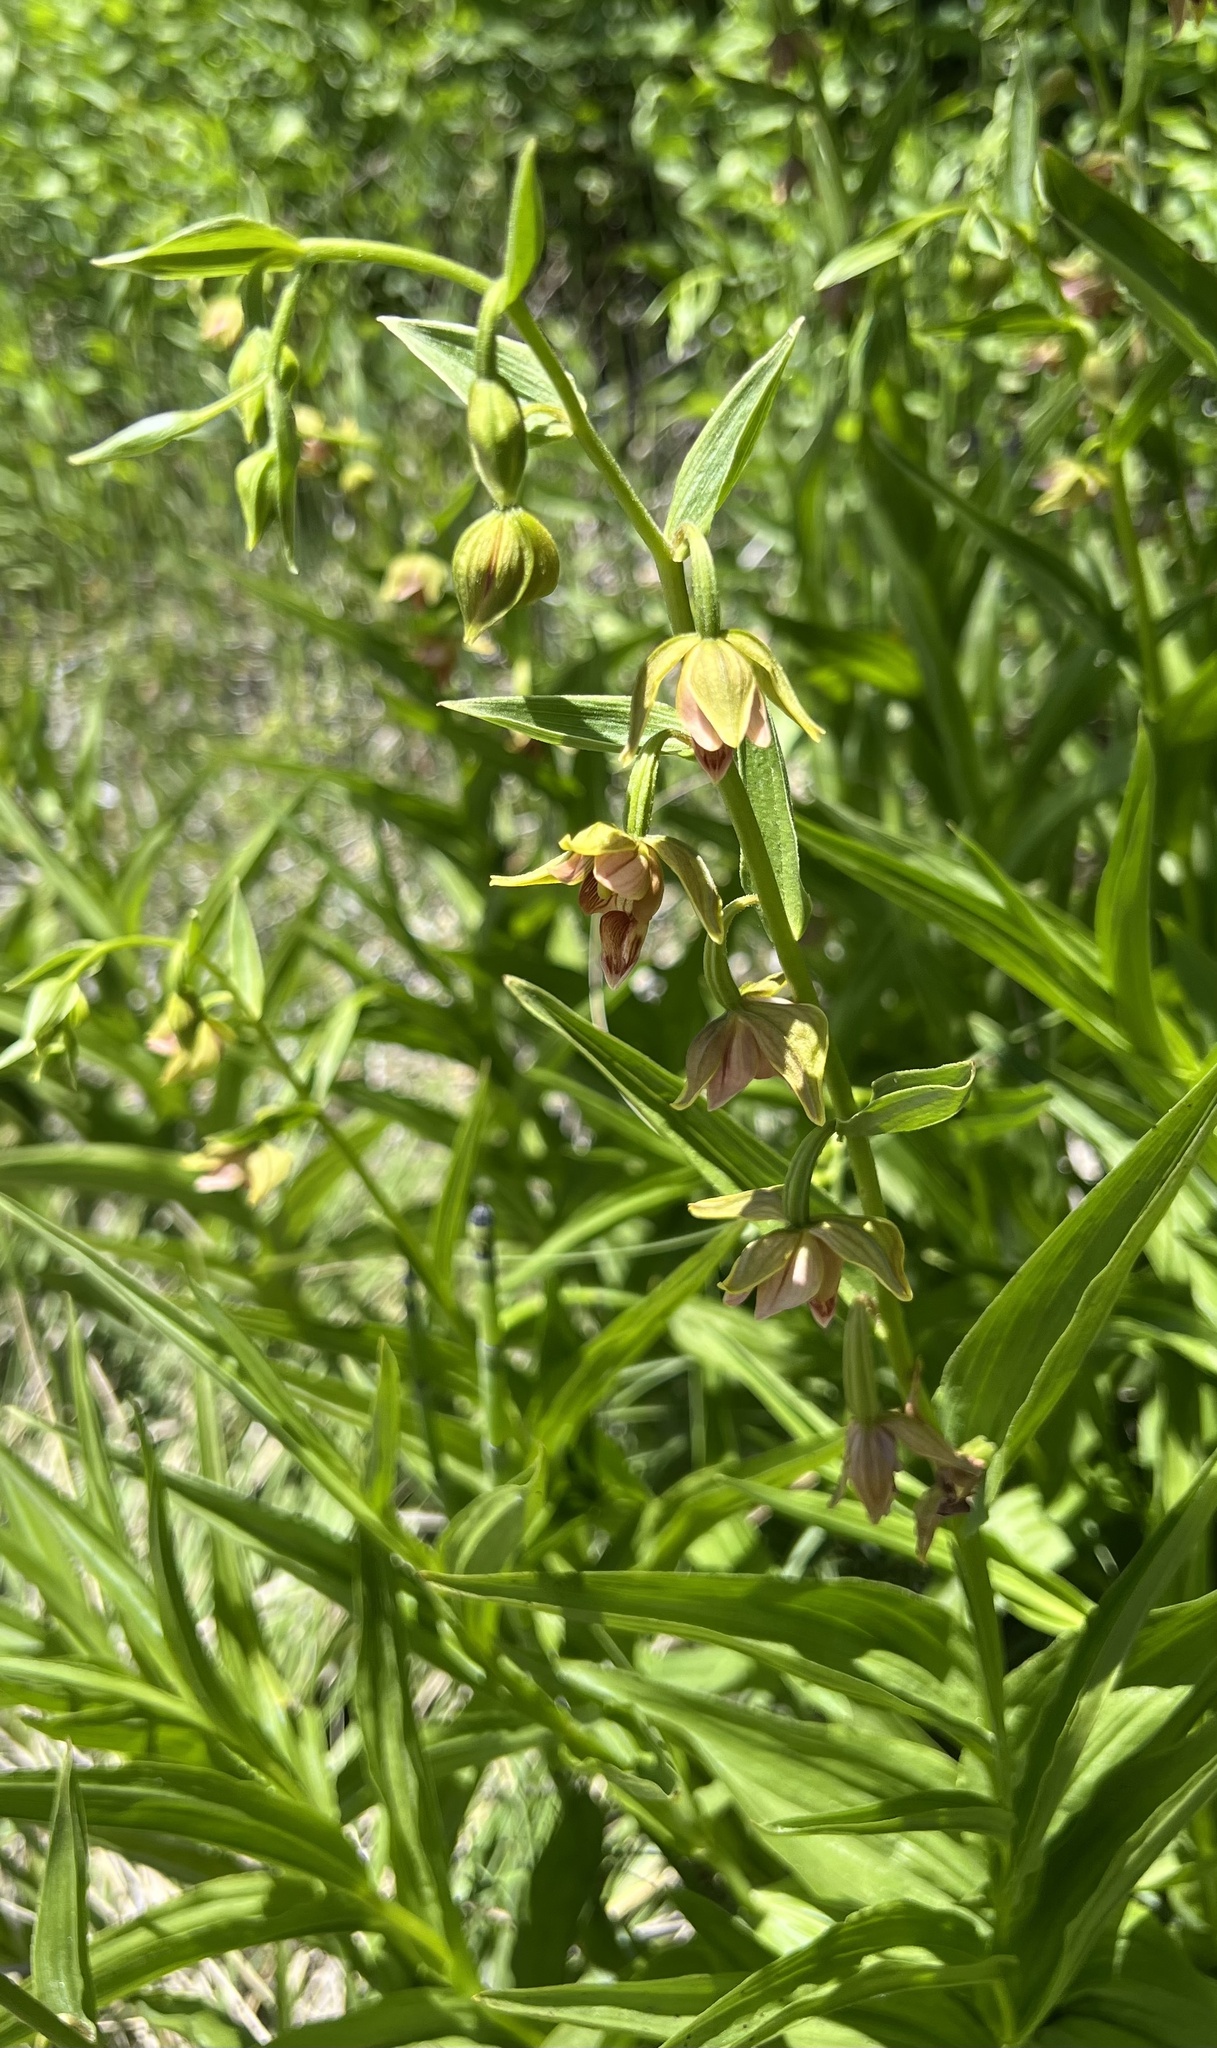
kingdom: Plantae
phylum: Tracheophyta
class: Liliopsida
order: Asparagales
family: Orchidaceae
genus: Epipactis
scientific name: Epipactis gigantea
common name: Chatterbox
